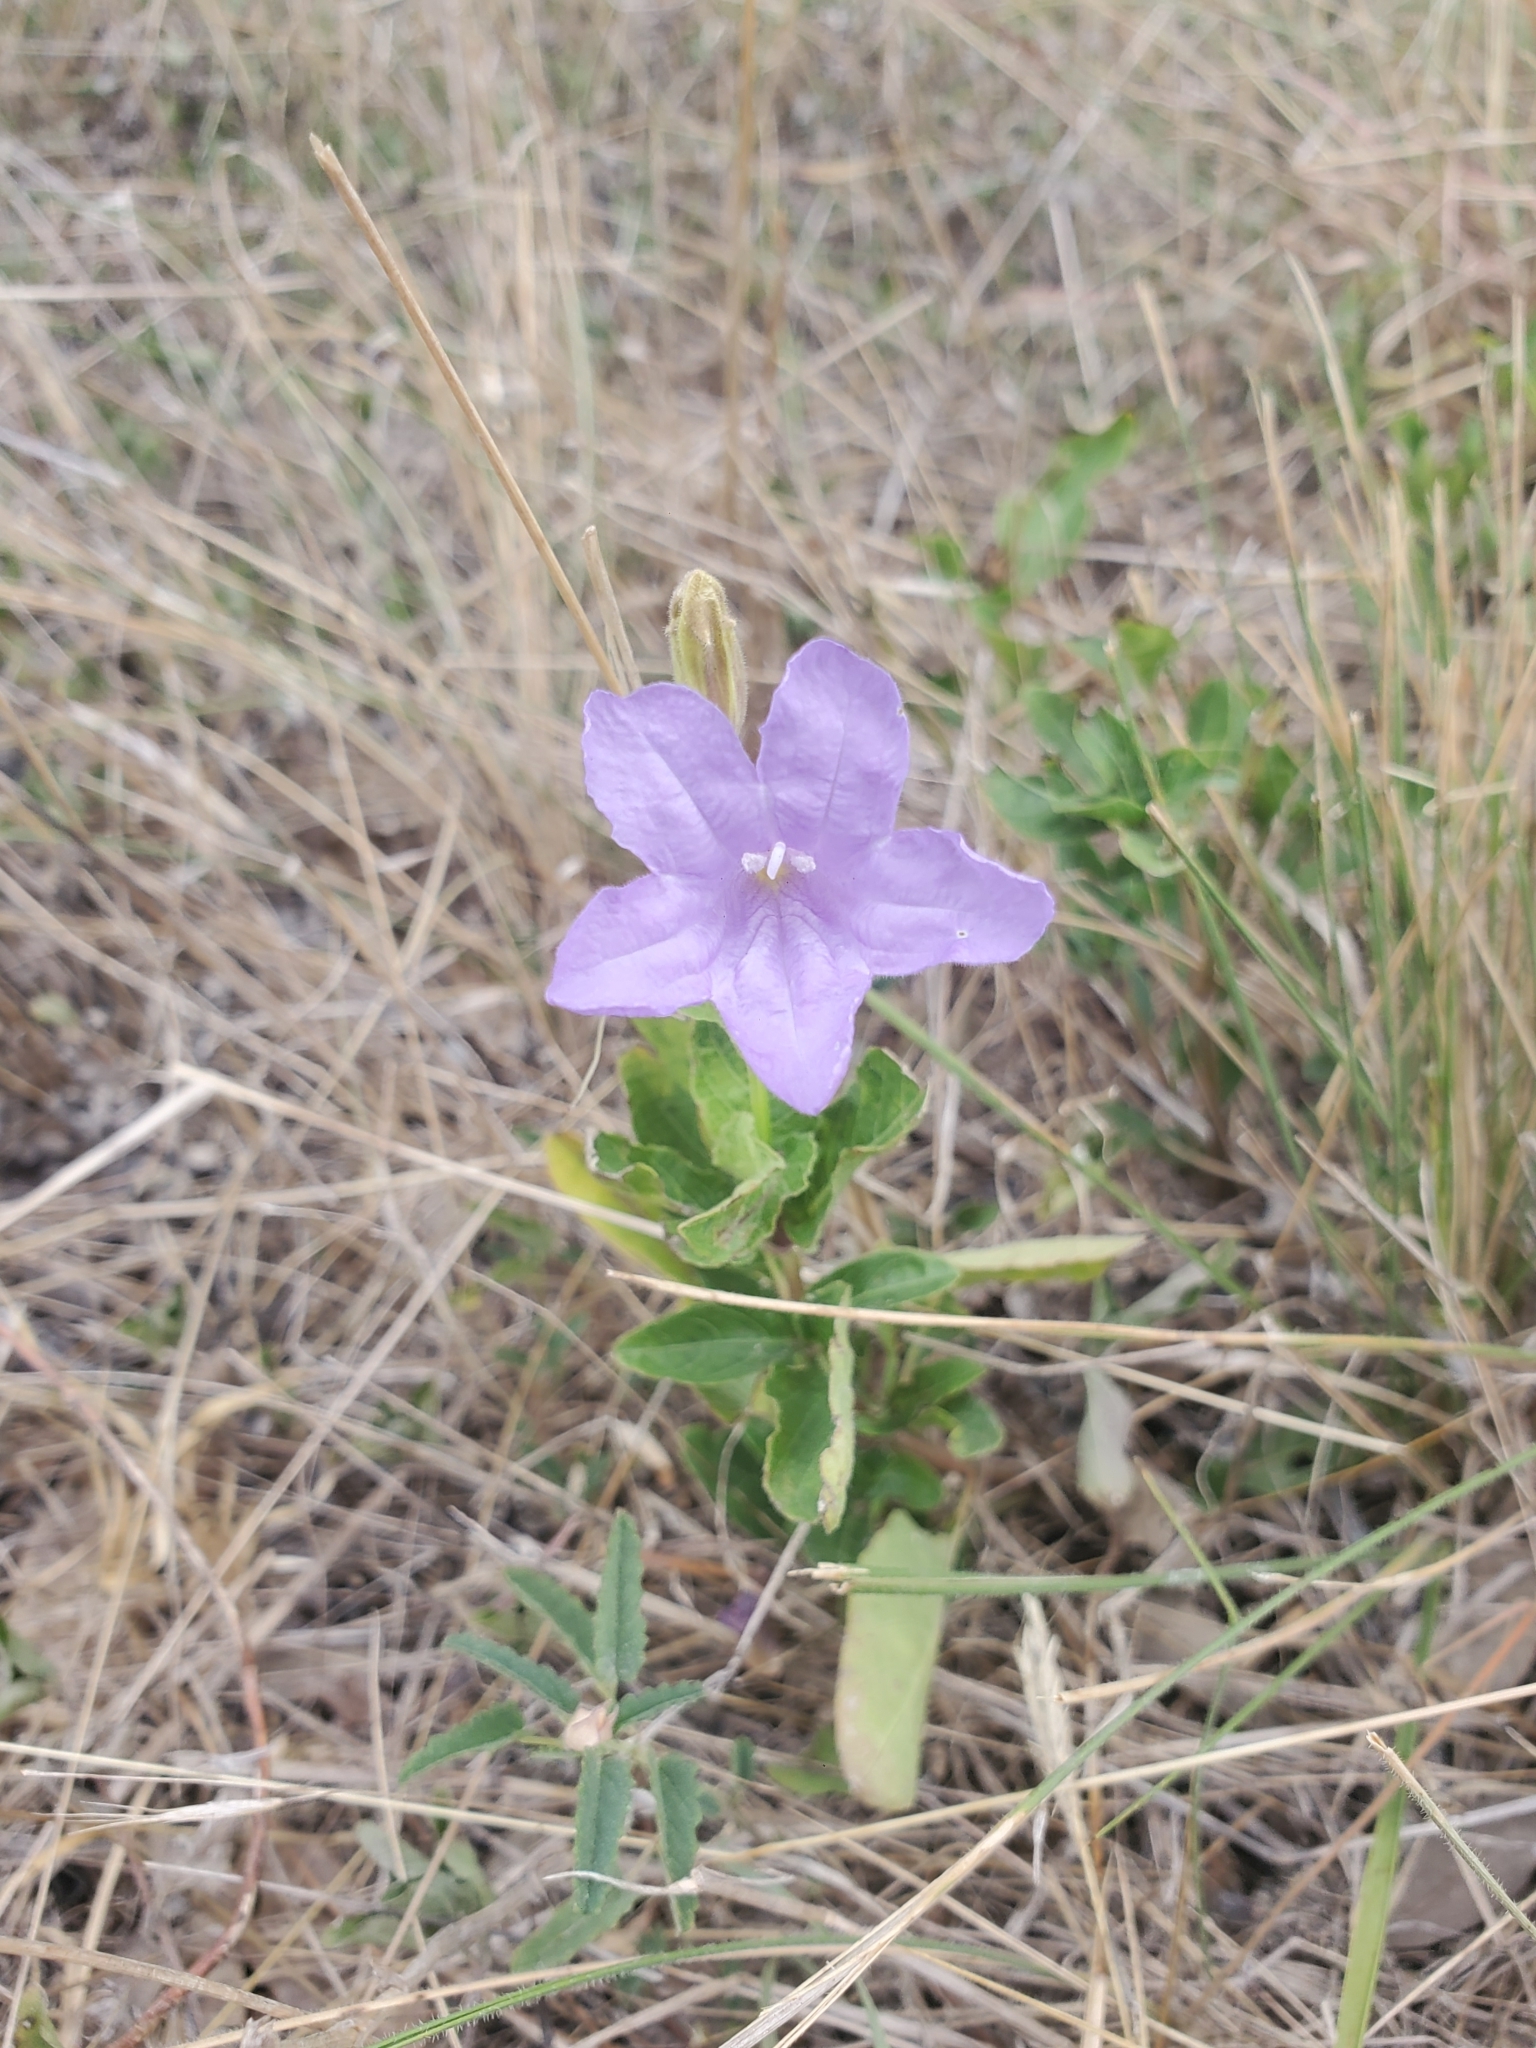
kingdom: Plantae
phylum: Tracheophyta
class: Magnoliopsida
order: Lamiales
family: Acanthaceae
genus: Ruellia
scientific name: Ruellia ciliatiflora
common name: Hairyflower wild petunia
